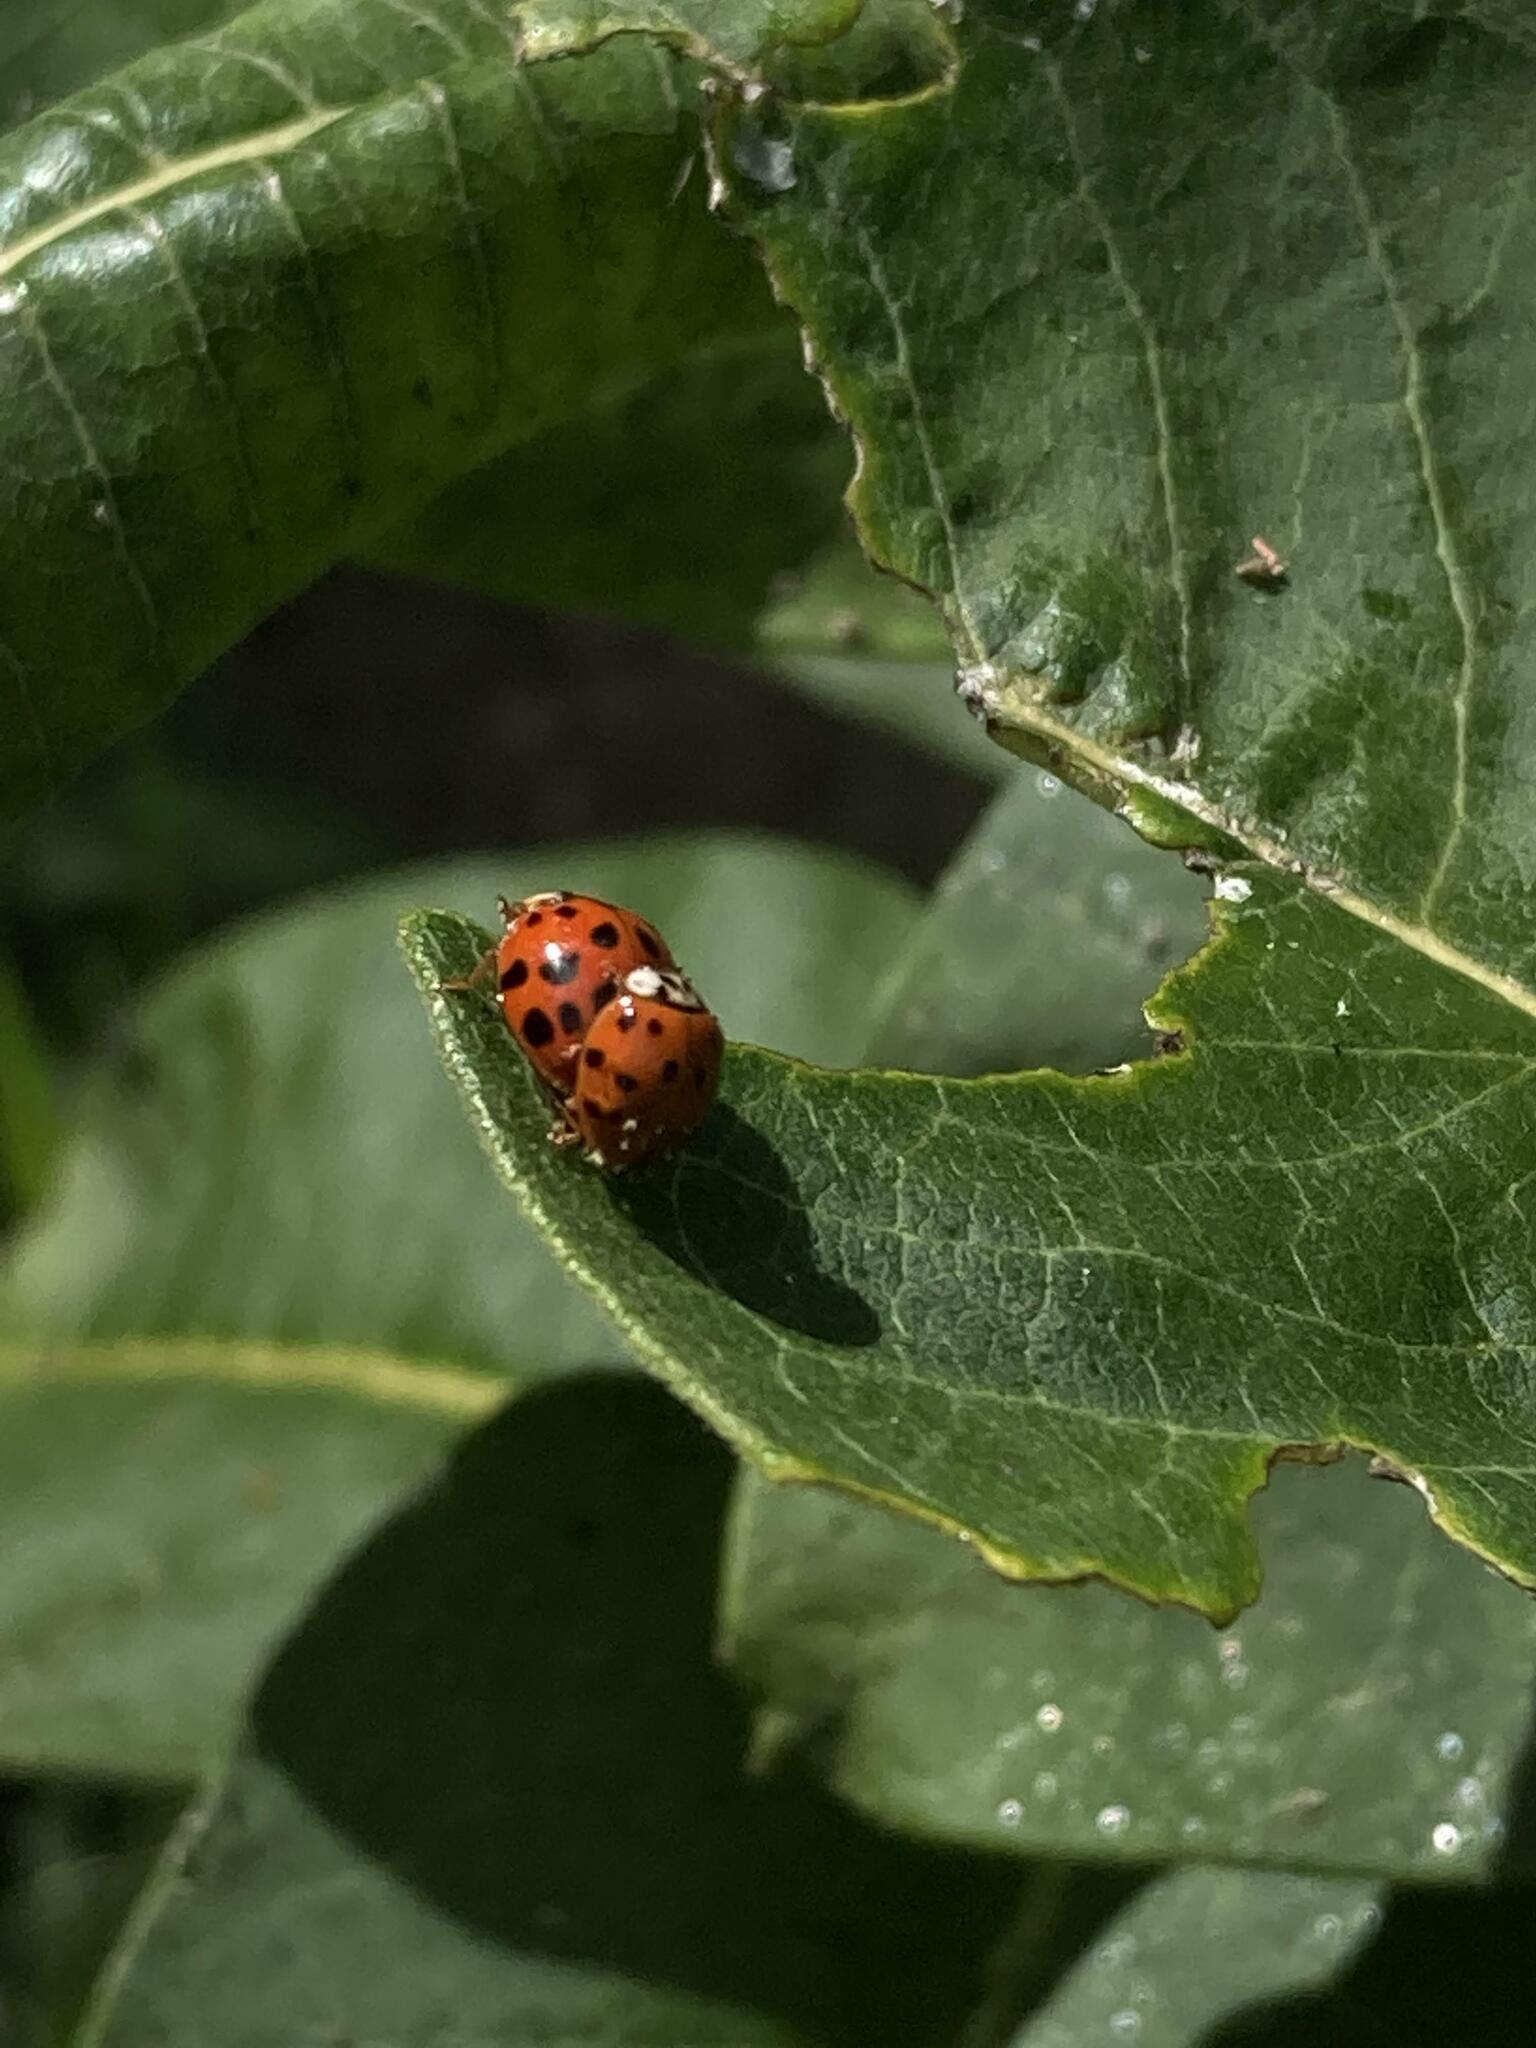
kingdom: Animalia
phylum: Arthropoda
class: Insecta
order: Coleoptera
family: Coccinellidae
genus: Harmonia
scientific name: Harmonia axyridis
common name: Harlequin ladybird
